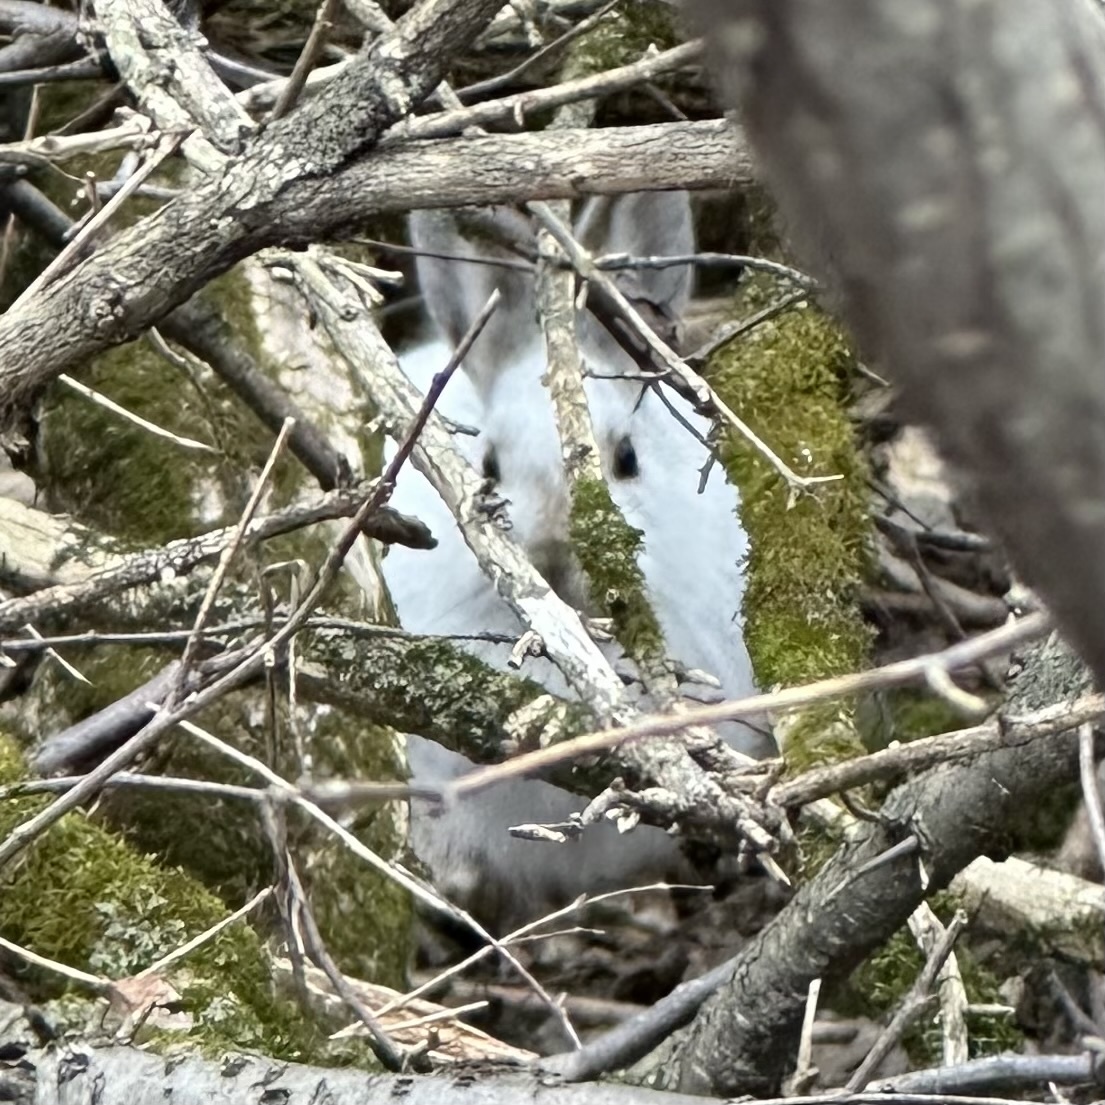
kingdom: Animalia
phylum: Chordata
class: Mammalia
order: Lagomorpha
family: Leporidae
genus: Lepus
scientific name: Lepus americanus
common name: Snowshoe hare
